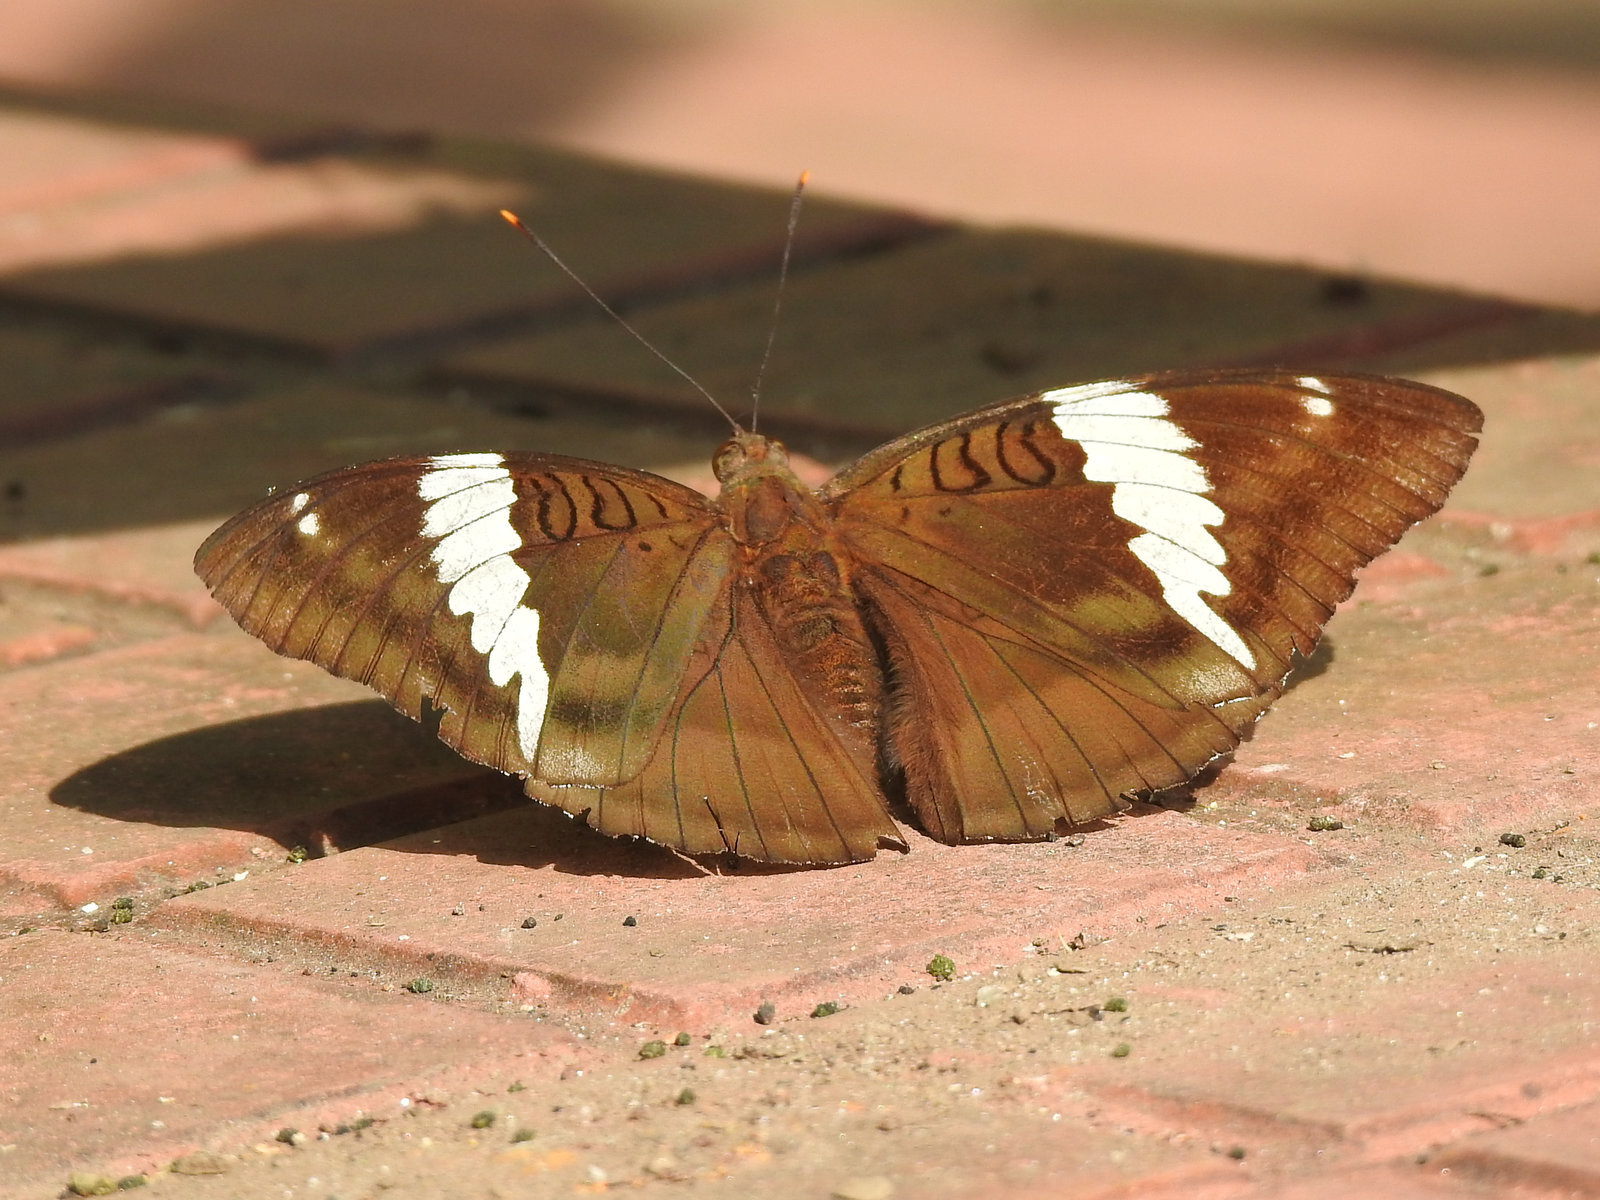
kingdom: Animalia
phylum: Arthropoda
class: Insecta
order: Lepidoptera
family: Nymphalidae
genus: Euthalia
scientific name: Euthalia phemius
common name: White-edged blue baron
